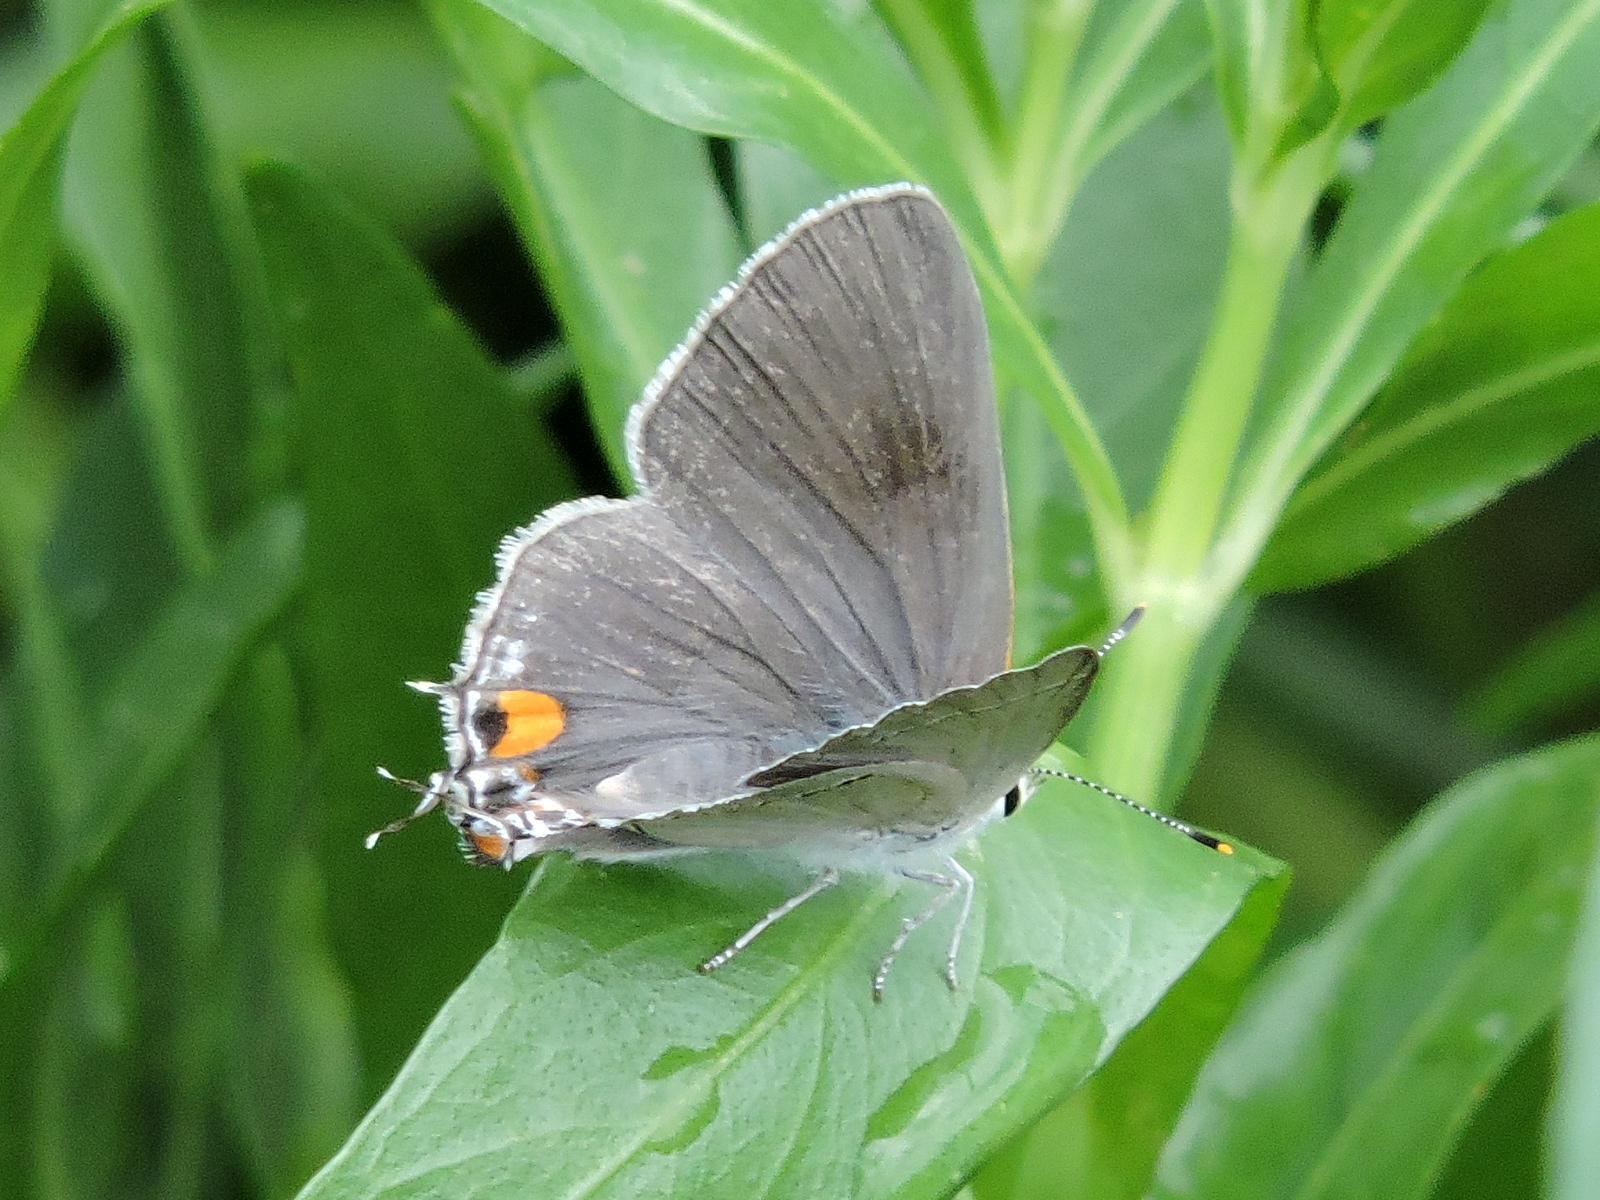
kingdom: Animalia
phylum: Arthropoda
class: Insecta
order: Lepidoptera
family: Lycaenidae
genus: Strymon
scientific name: Strymon melinus
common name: Gray hairstreak
